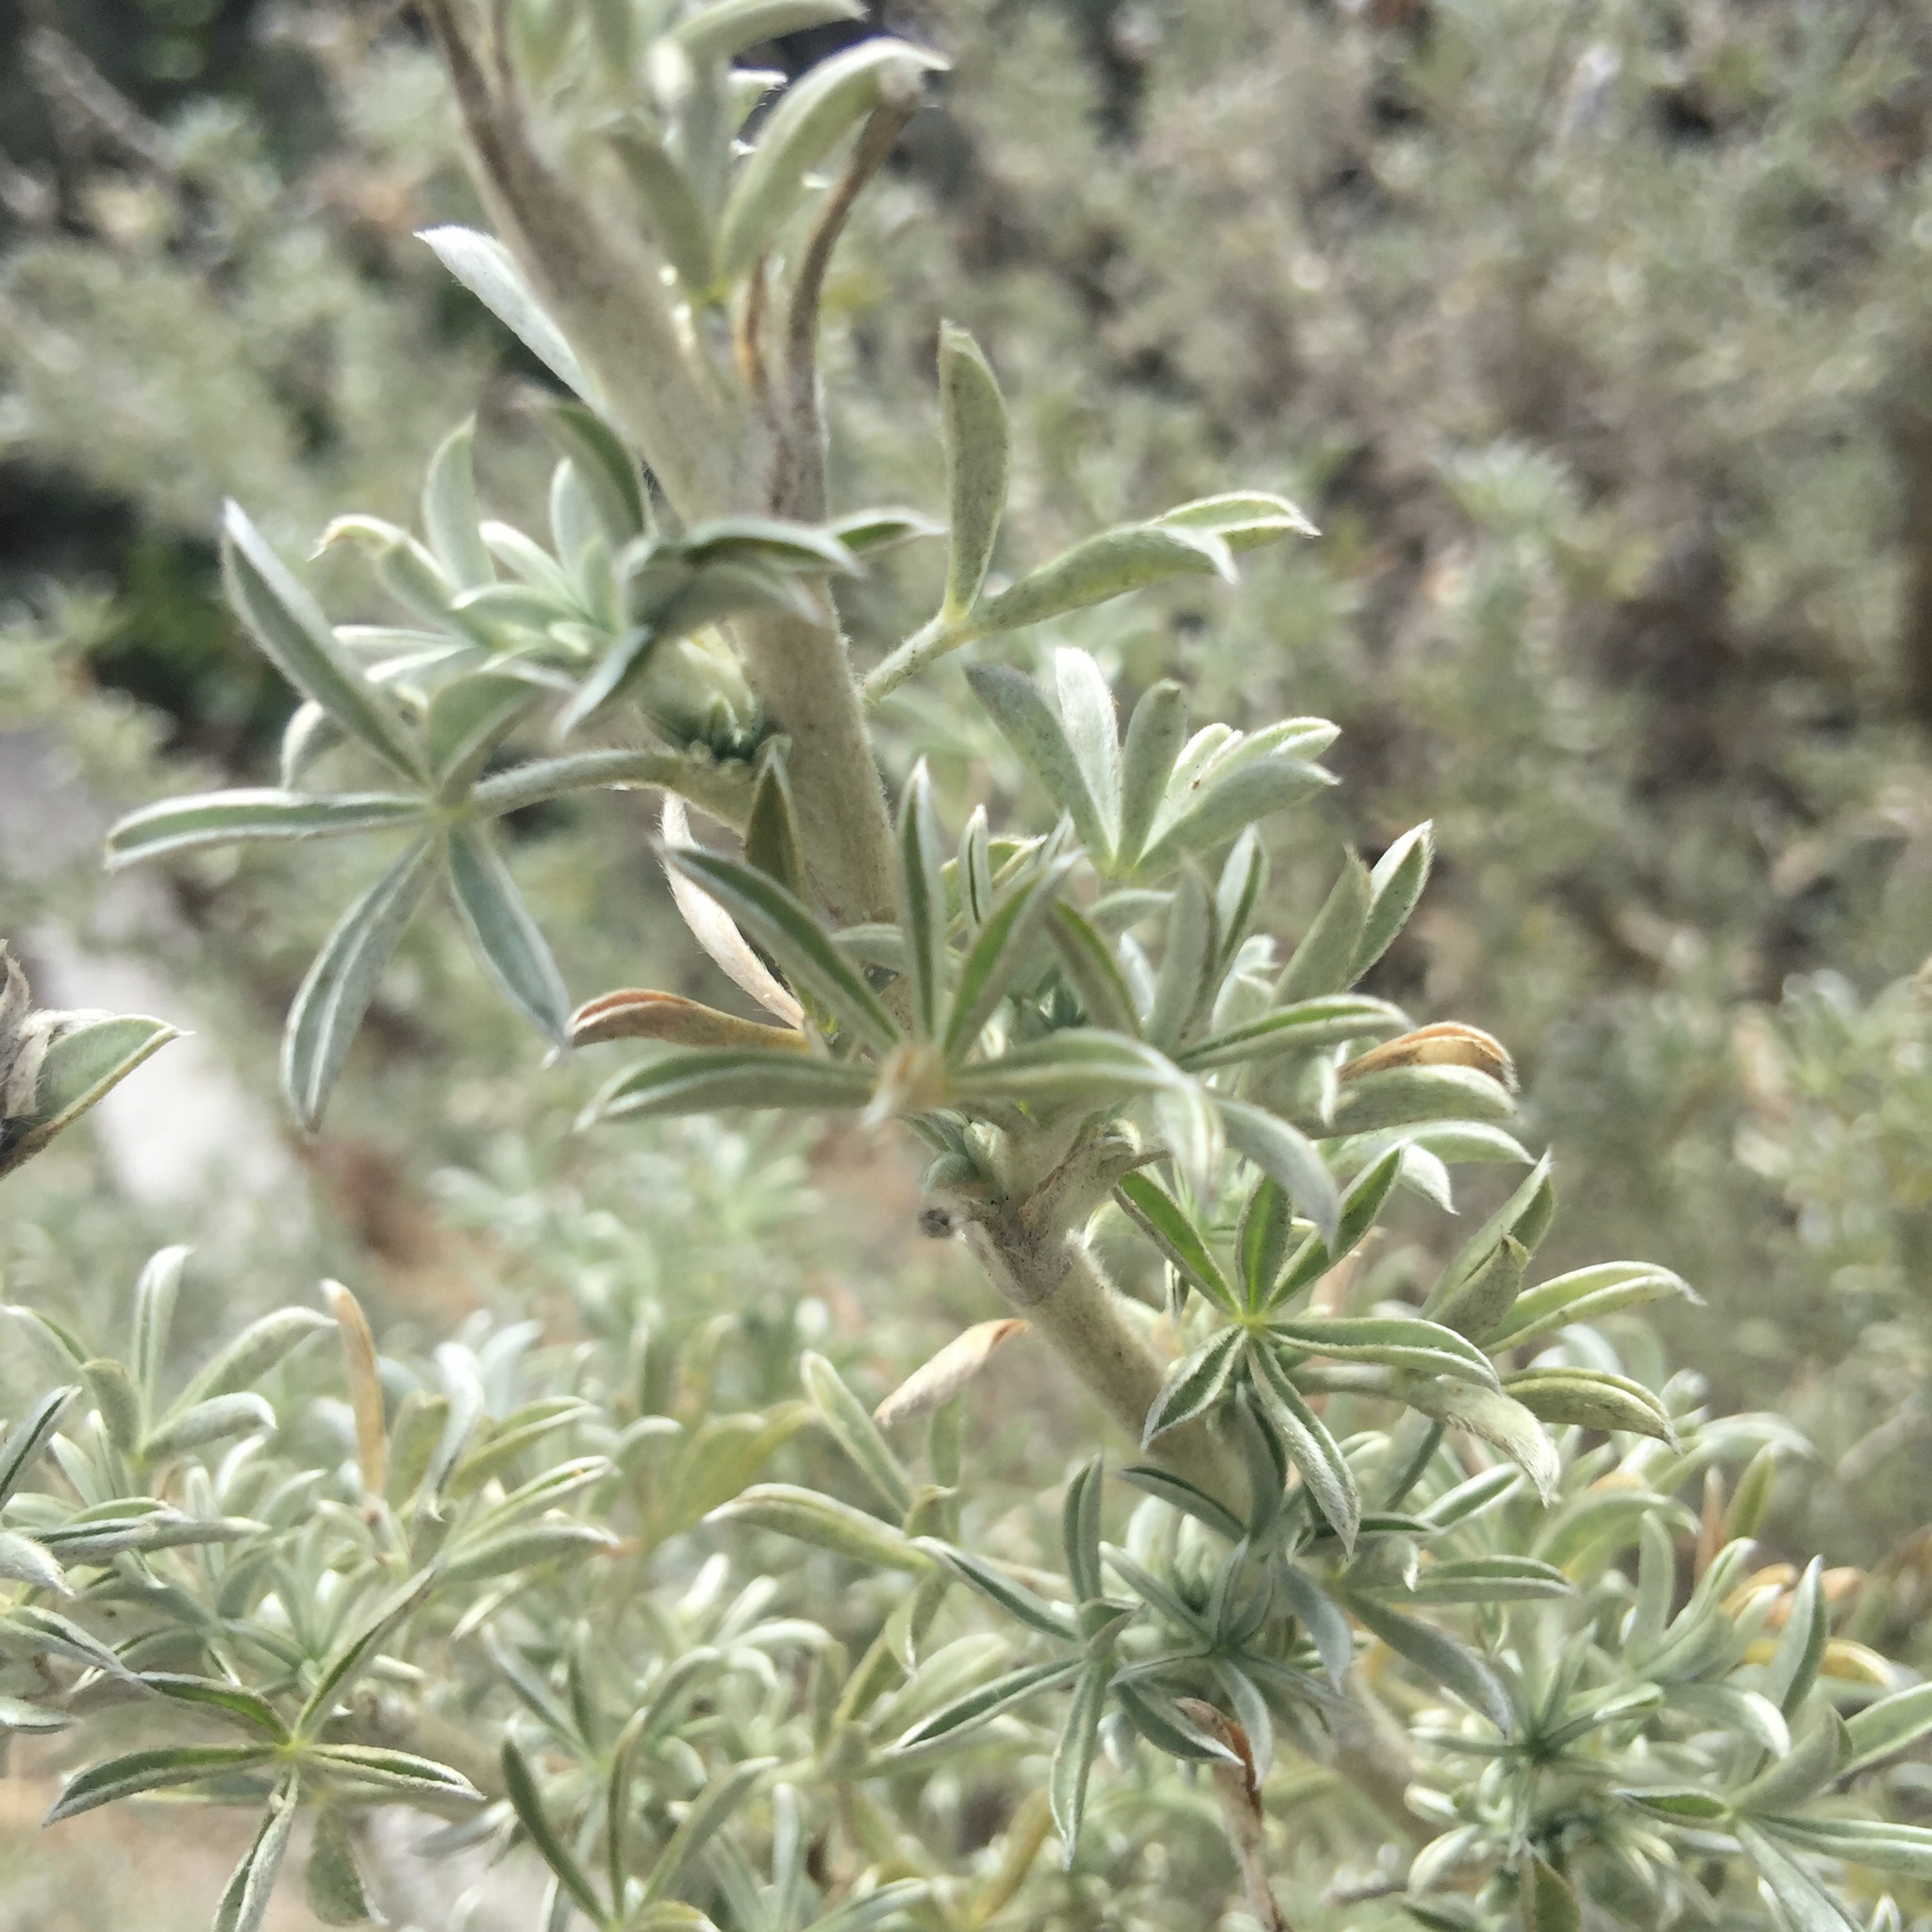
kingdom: Plantae
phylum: Tracheophyta
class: Magnoliopsida
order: Fabales
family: Fabaceae
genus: Lupinus
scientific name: Lupinus chamissonis
